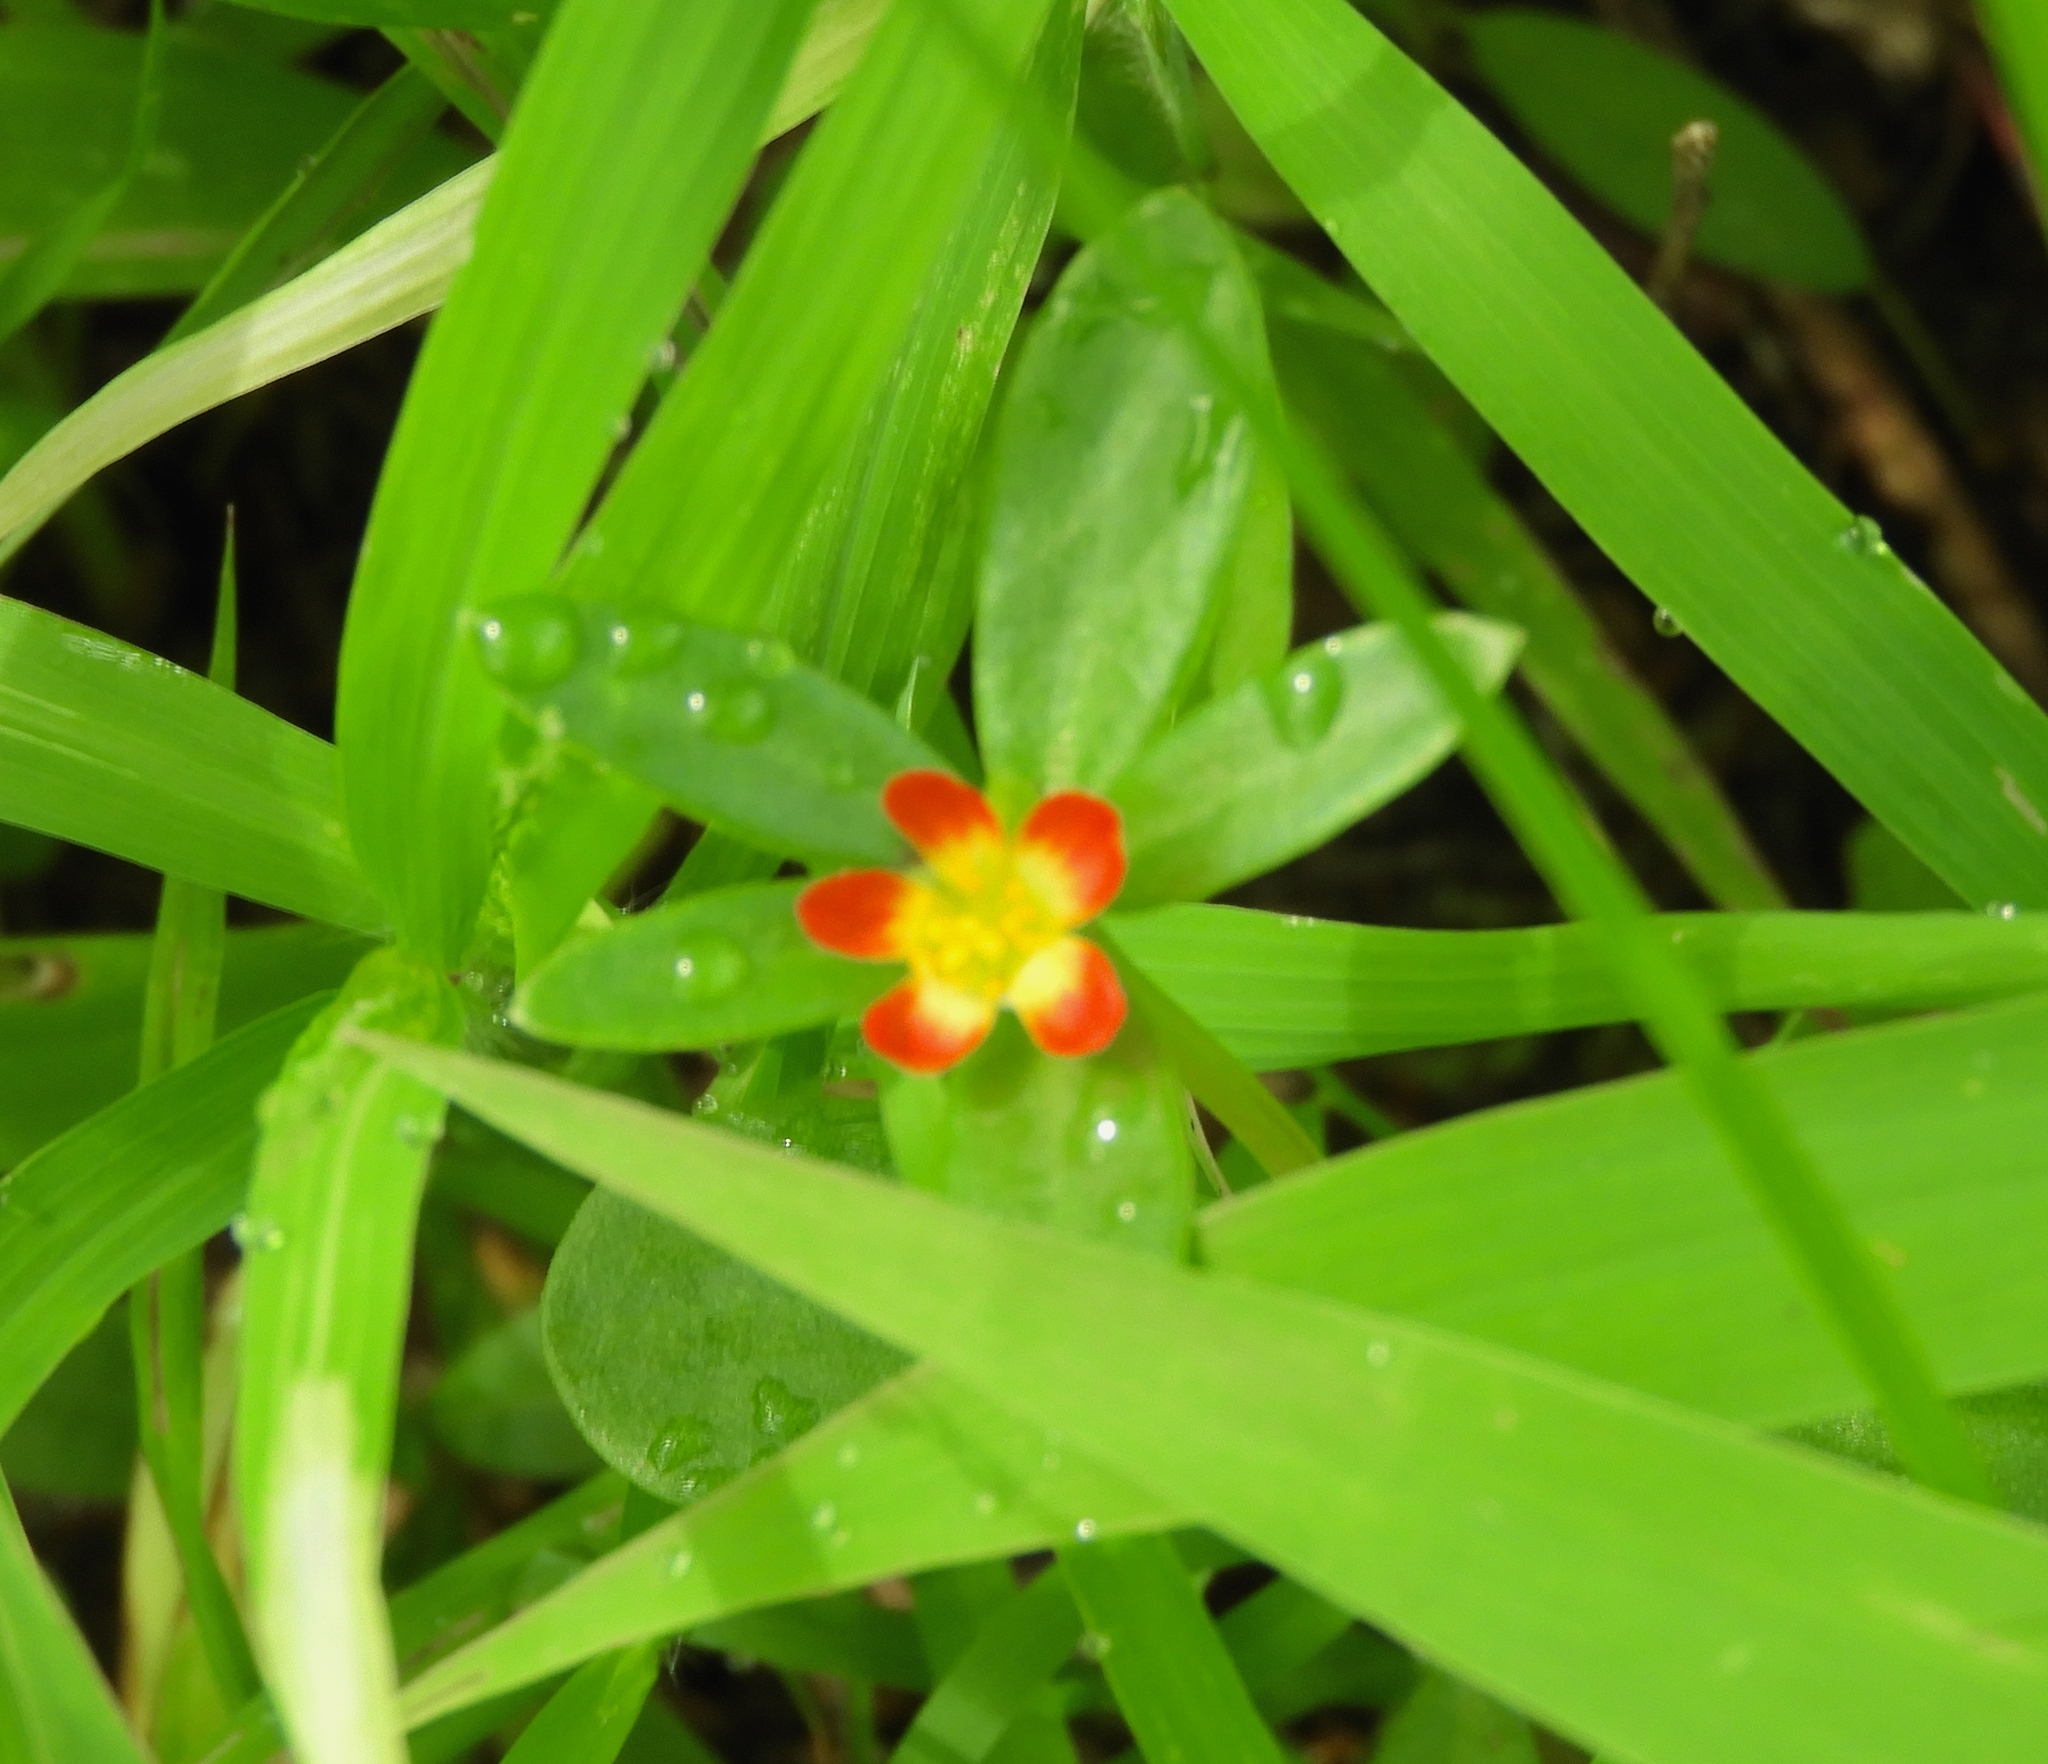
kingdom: Plantae
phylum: Tracheophyta
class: Magnoliopsida
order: Caryophyllales
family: Portulacaceae
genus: Portulaca
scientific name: Portulaca umbraticola
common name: Wingpod purslane
